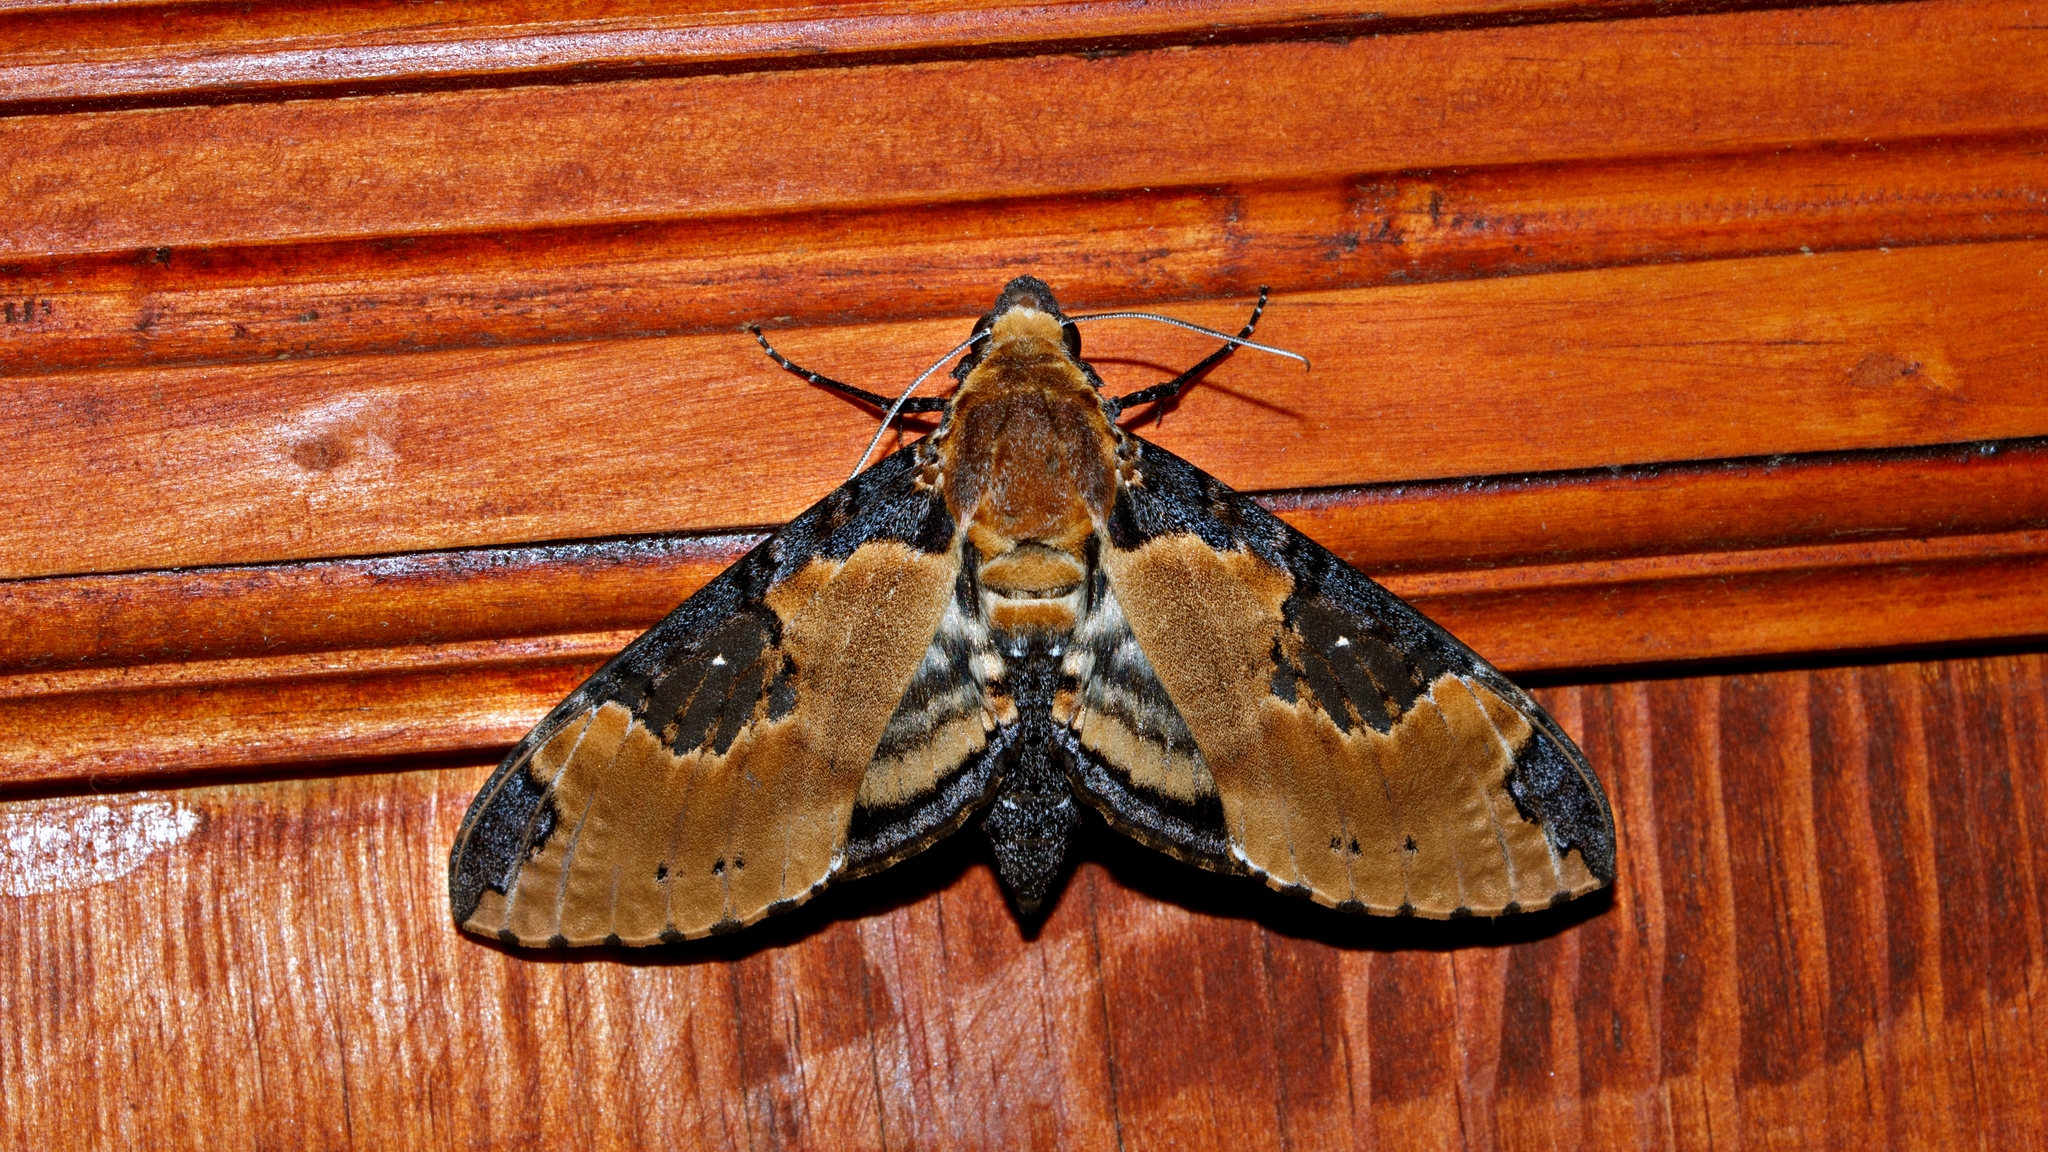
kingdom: Animalia
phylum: Arthropoda
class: Insecta
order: Lepidoptera
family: Sphingidae
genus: Manduca
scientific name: Manduca ochus
